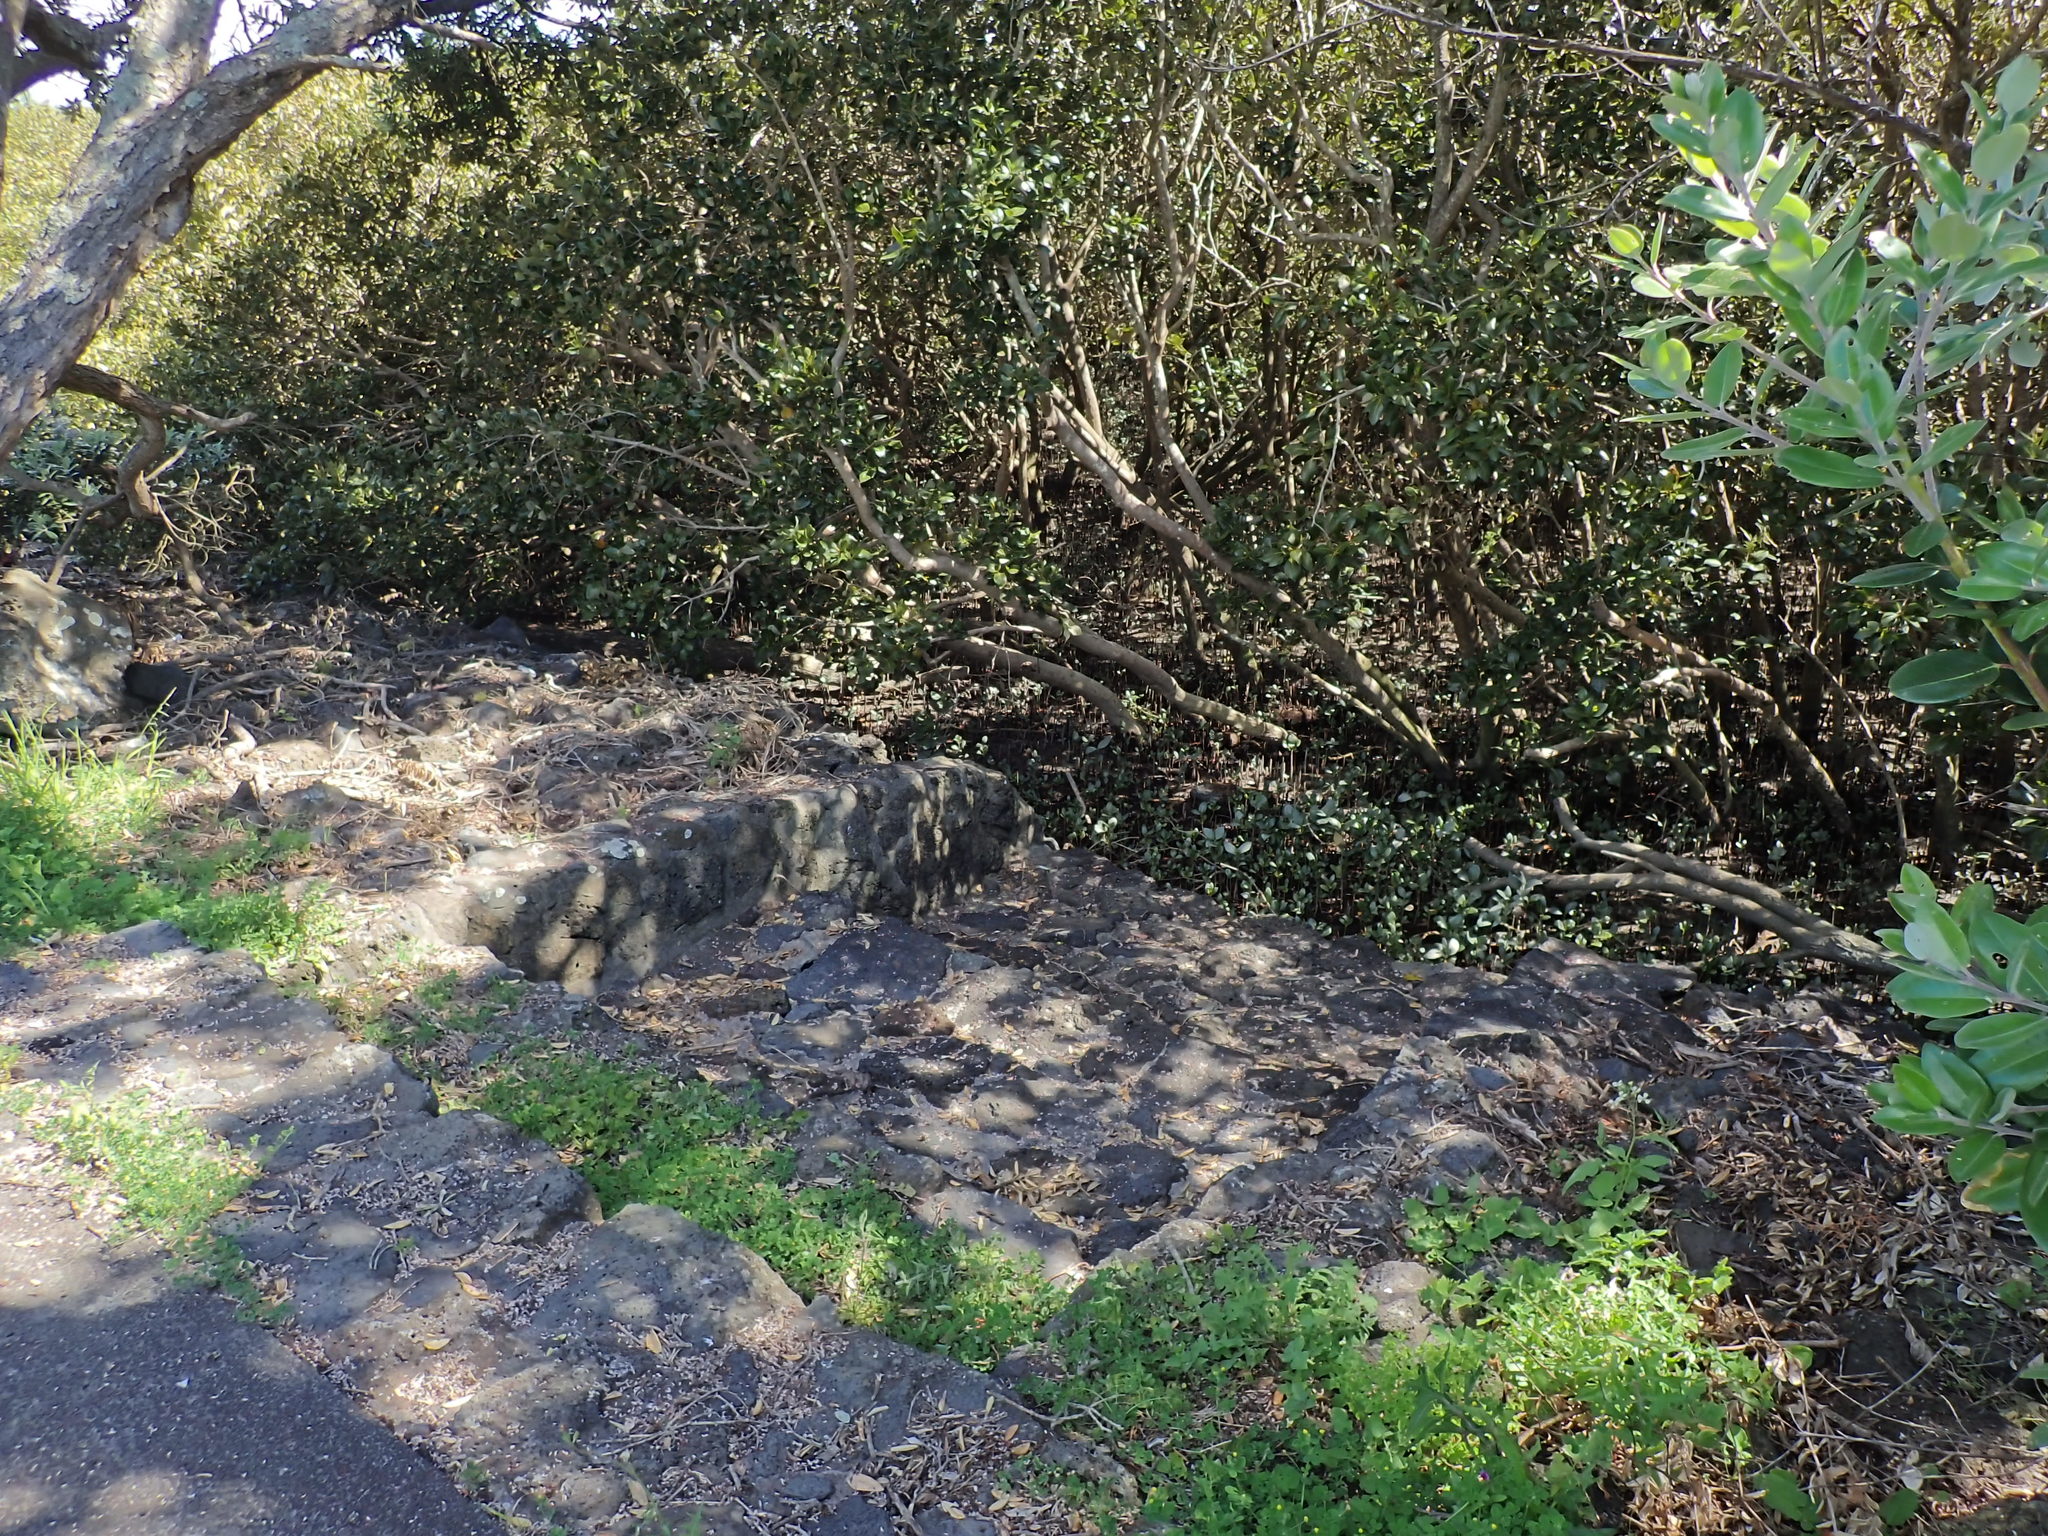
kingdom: Plantae
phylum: Tracheophyta
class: Magnoliopsida
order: Lamiales
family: Acanthaceae
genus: Avicennia
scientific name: Avicennia marina
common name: Gray mangrove
